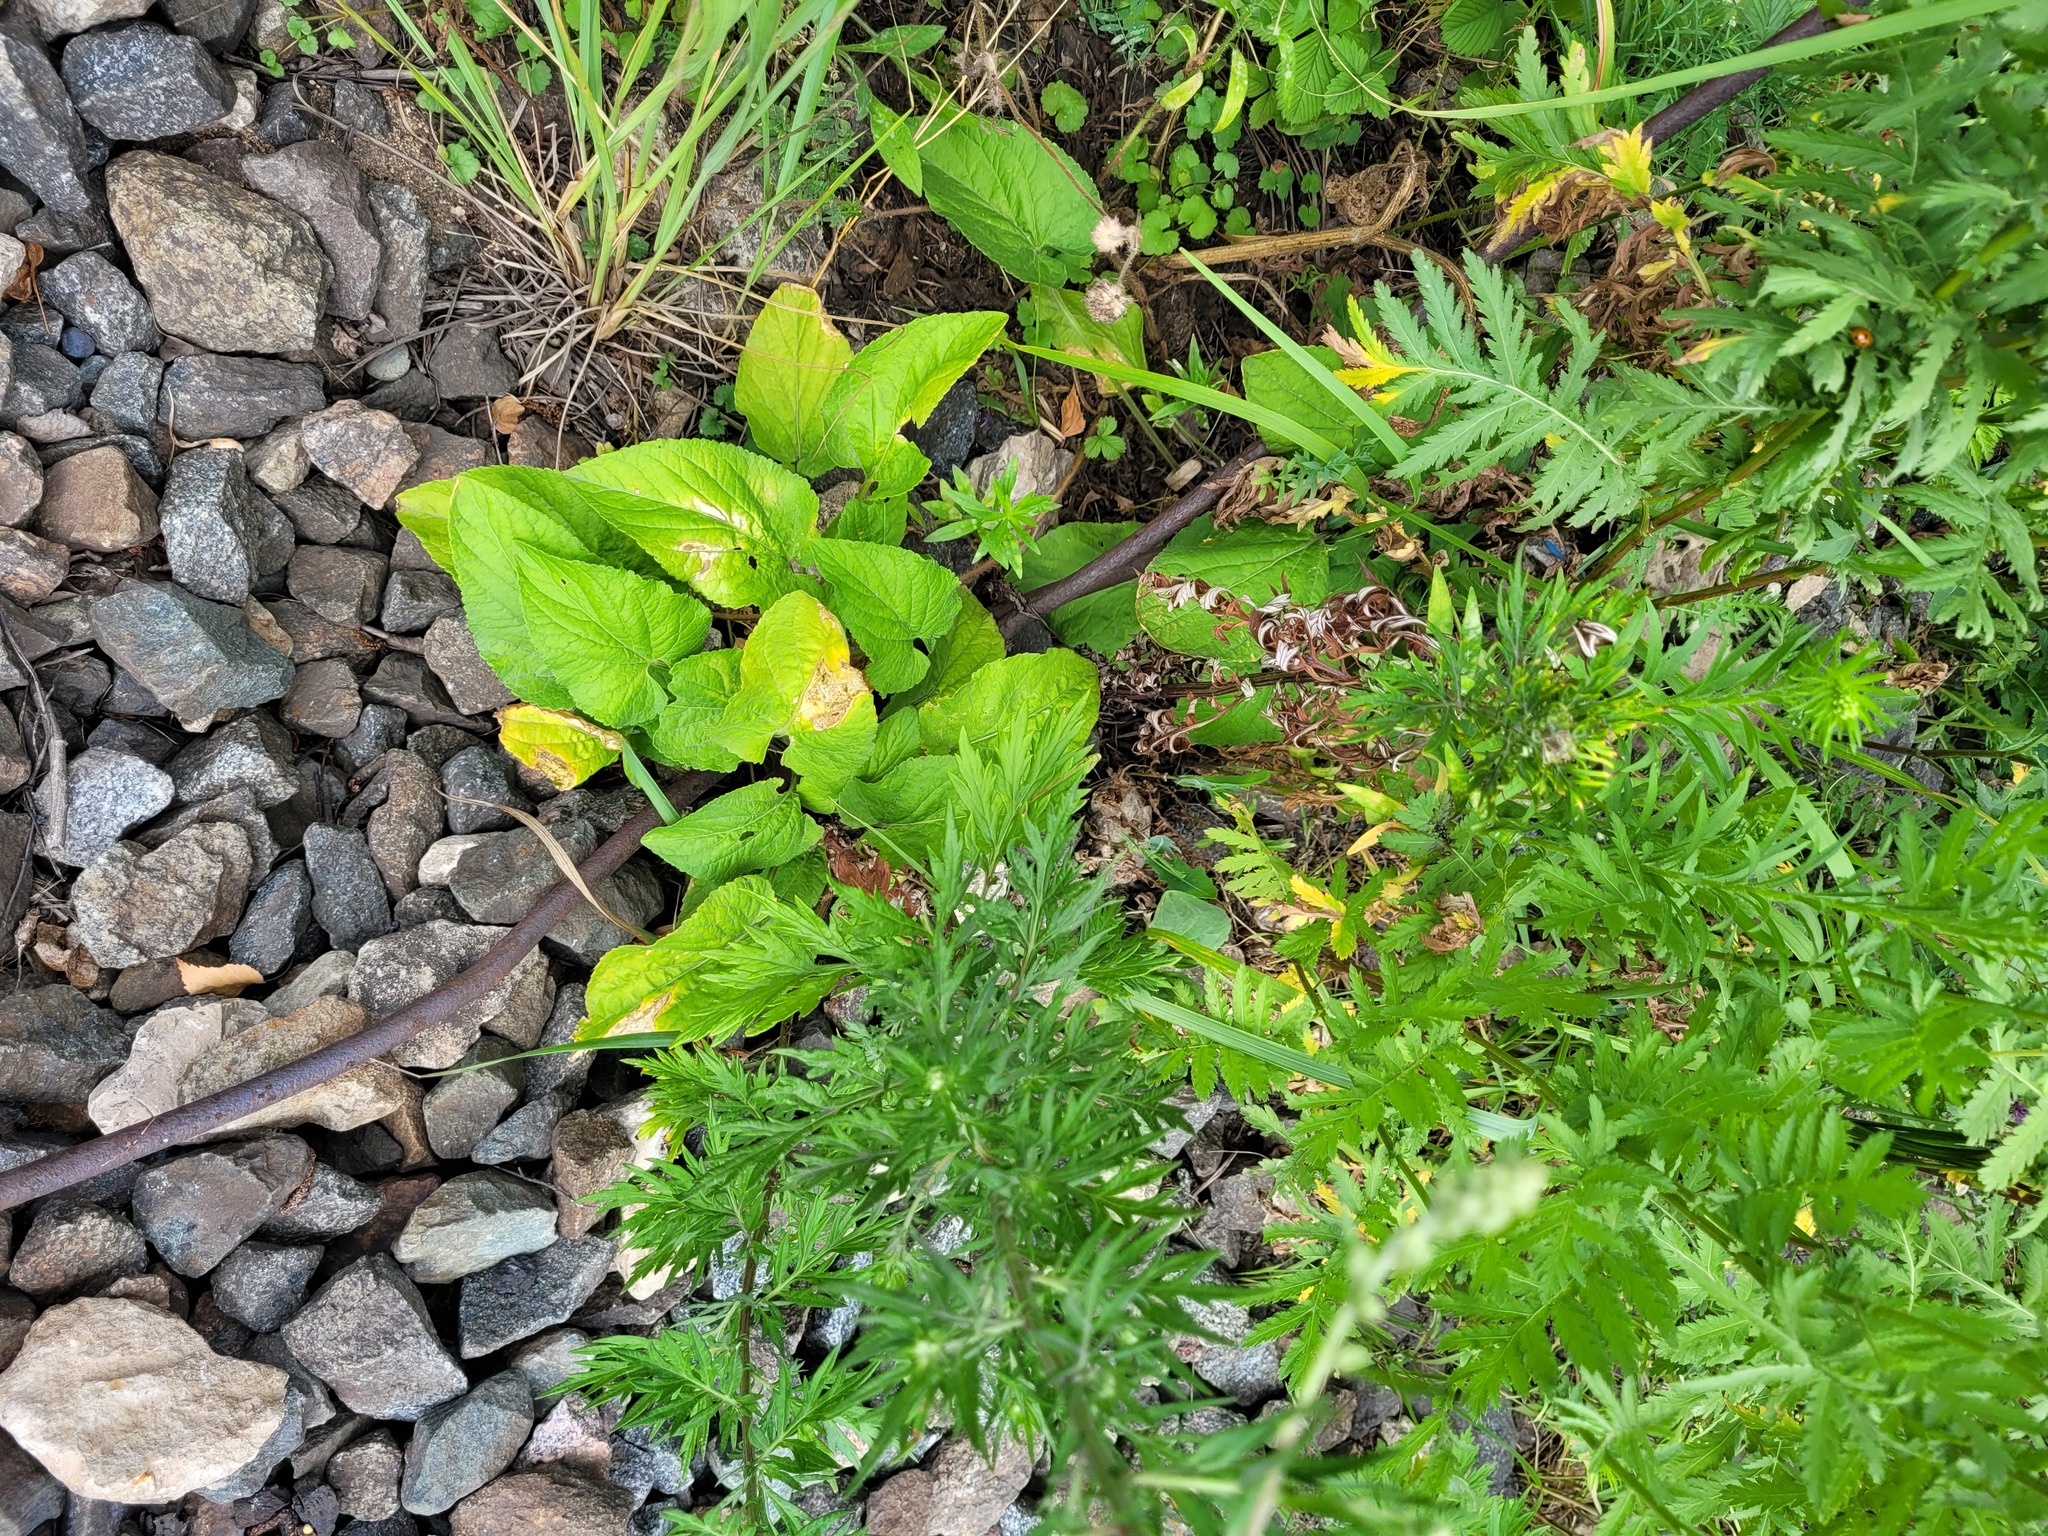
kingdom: Plantae
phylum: Tracheophyta
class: Magnoliopsida
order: Malpighiales
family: Violaceae
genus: Viola
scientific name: Viola hirta
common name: Hairy violet
